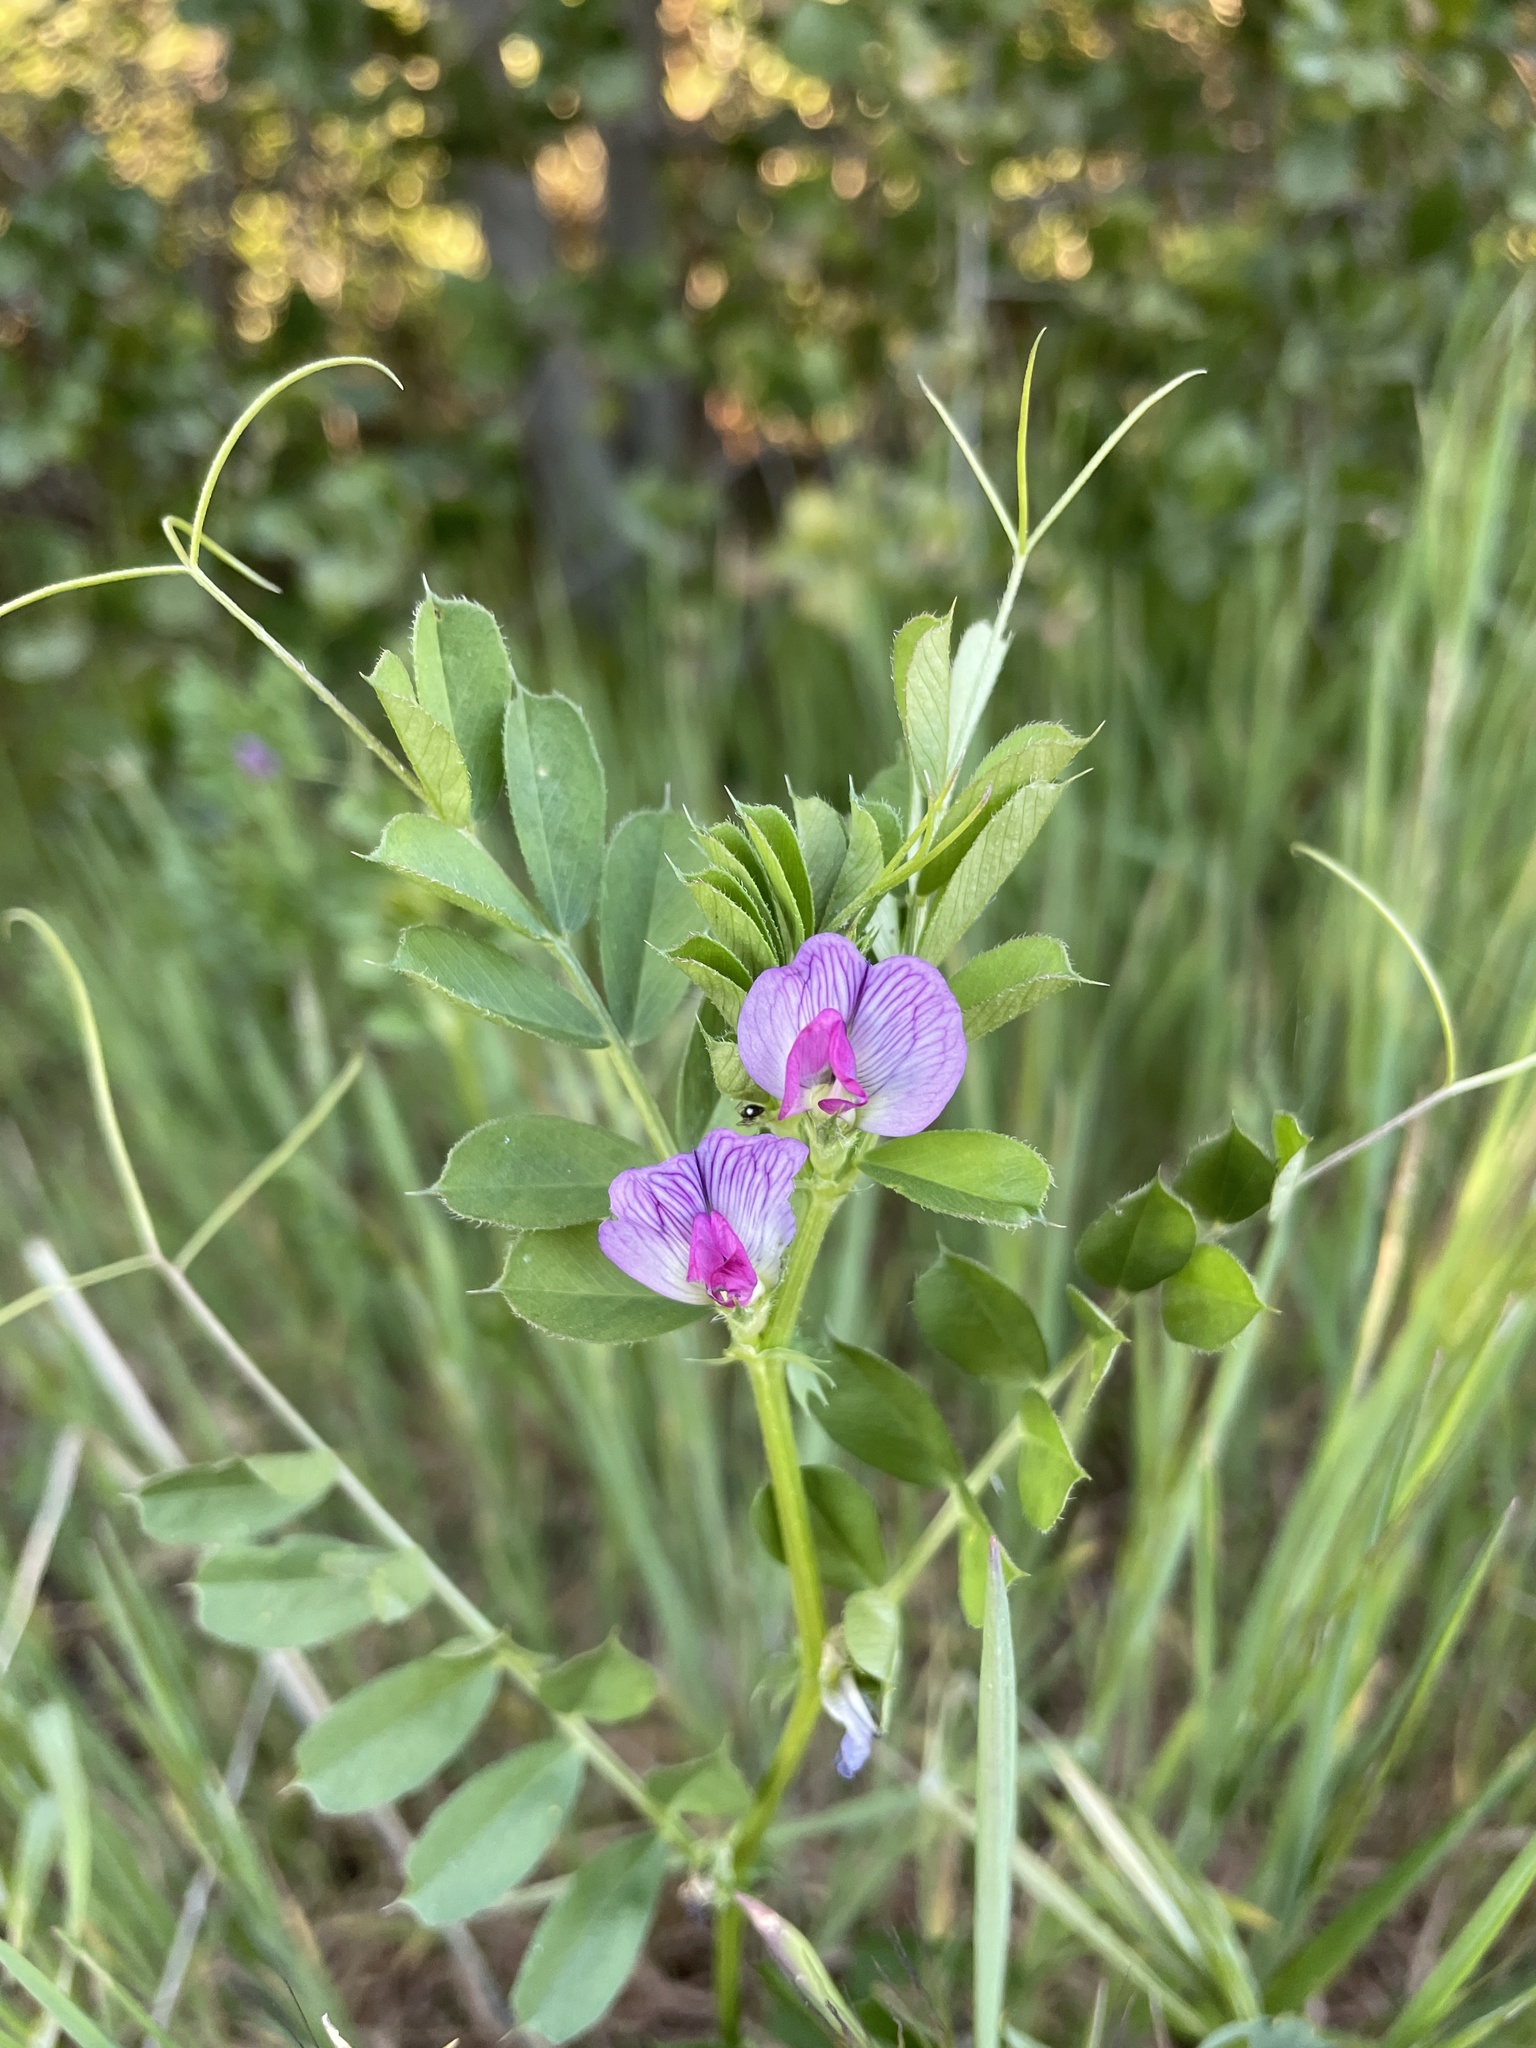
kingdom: Plantae
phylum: Tracheophyta
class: Magnoliopsida
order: Fabales
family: Fabaceae
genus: Vicia
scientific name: Vicia sativa
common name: Garden vetch
